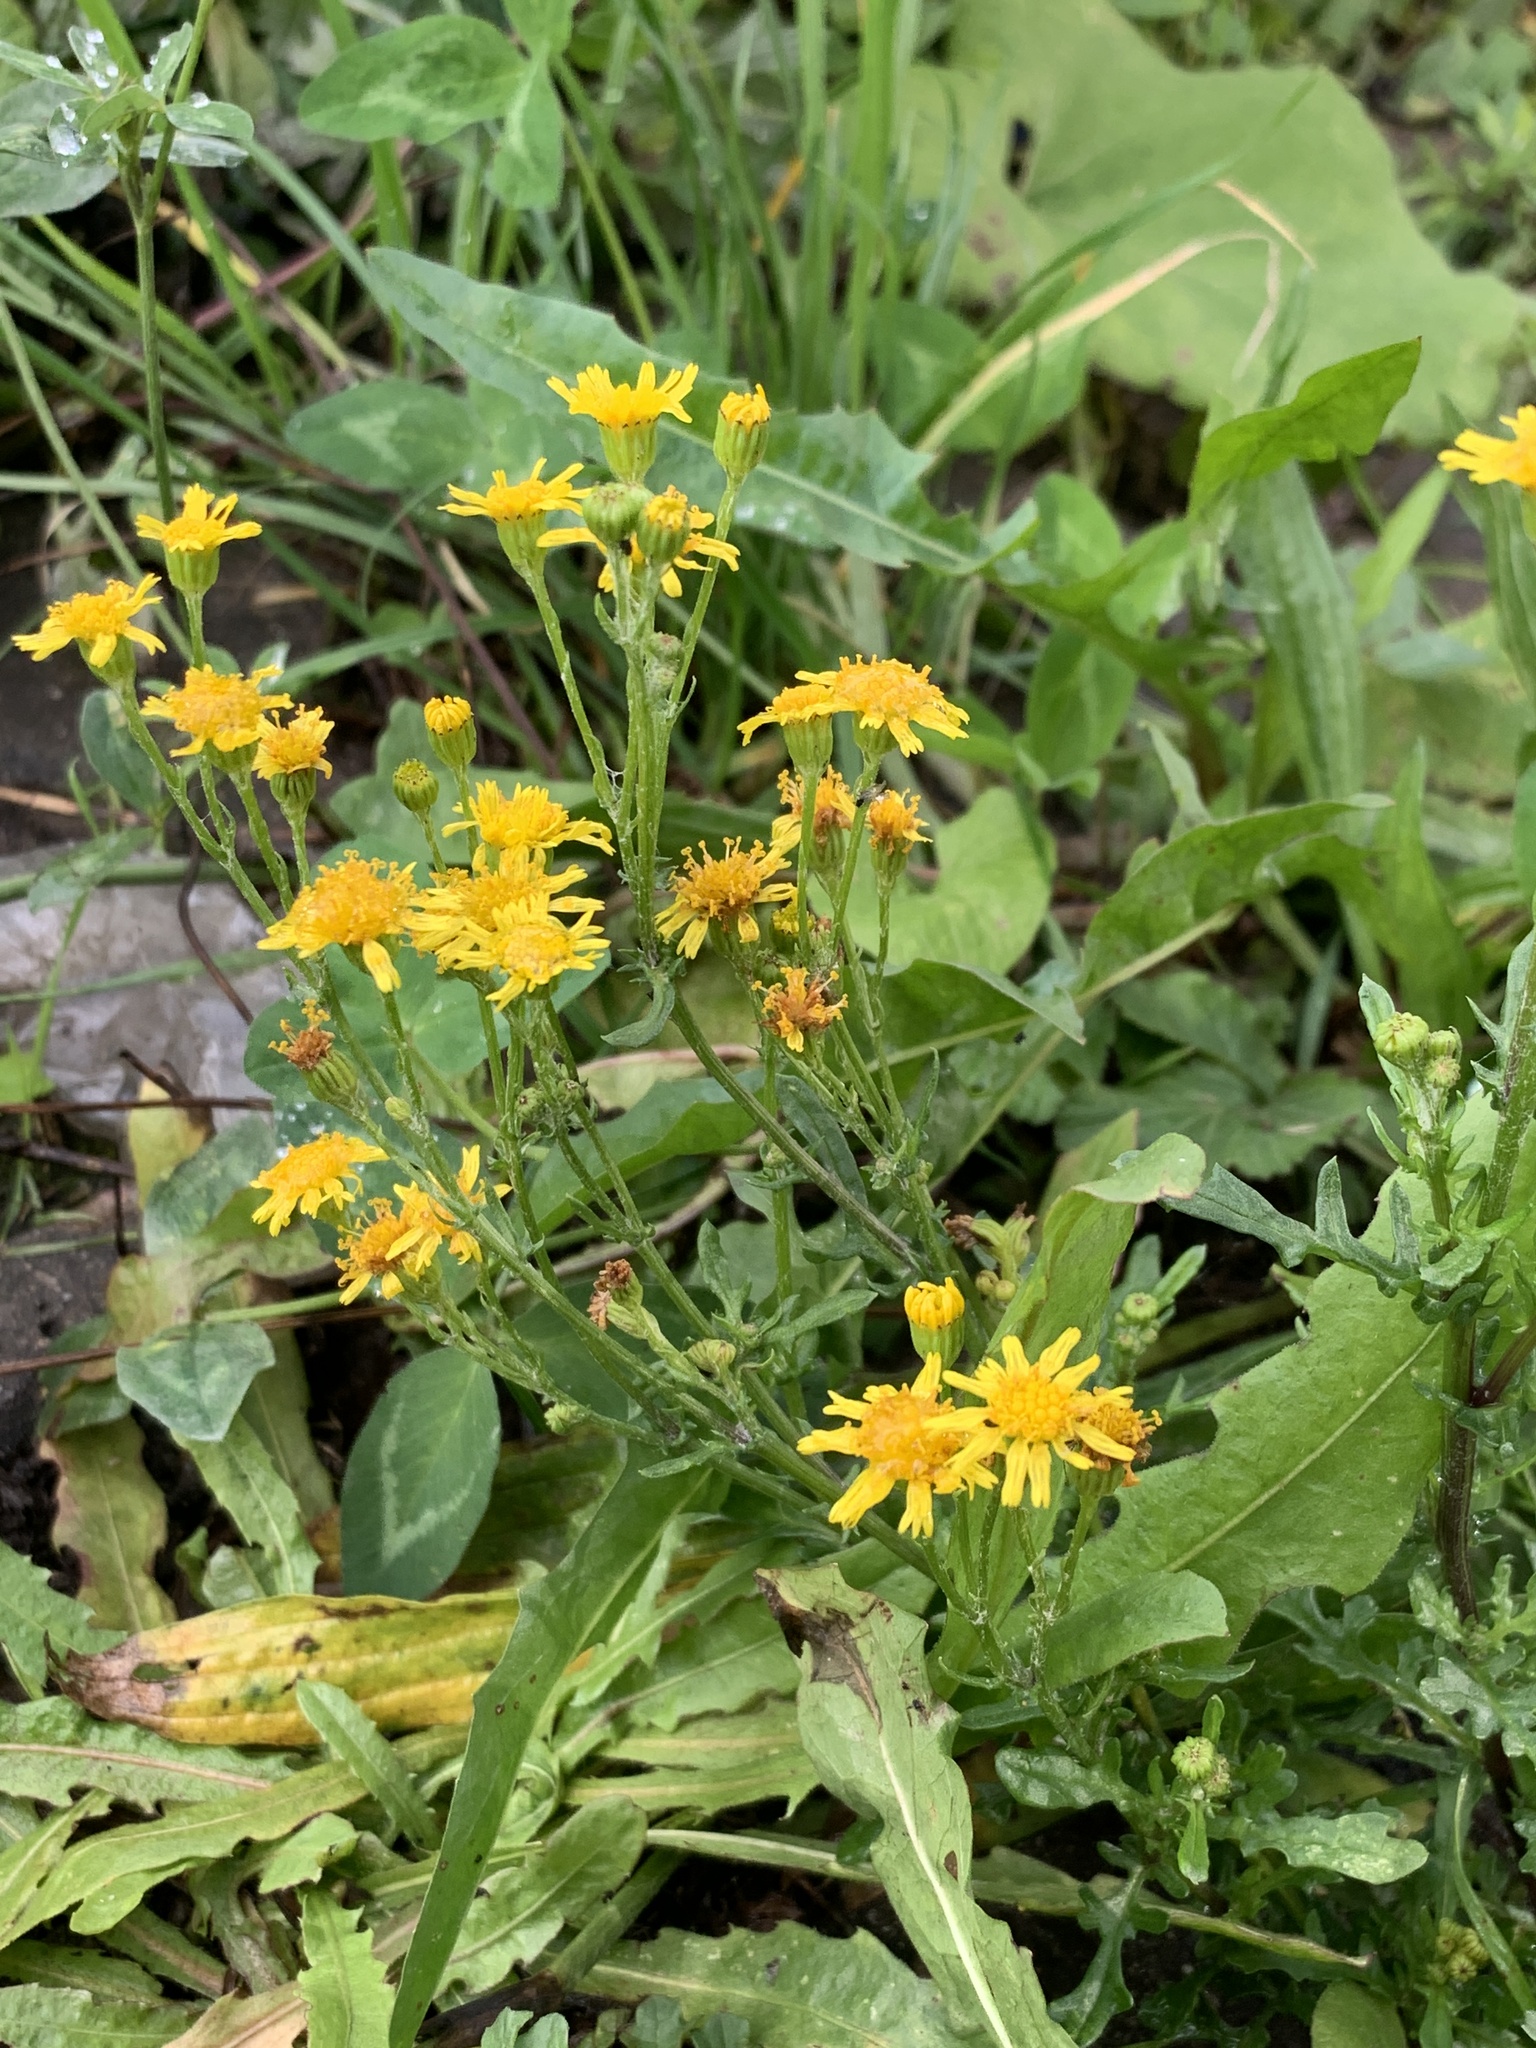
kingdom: Plantae
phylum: Tracheophyta
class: Magnoliopsida
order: Asterales
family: Asteraceae
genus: Jacobaea
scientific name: Jacobaea vulgaris
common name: Stinking willie
